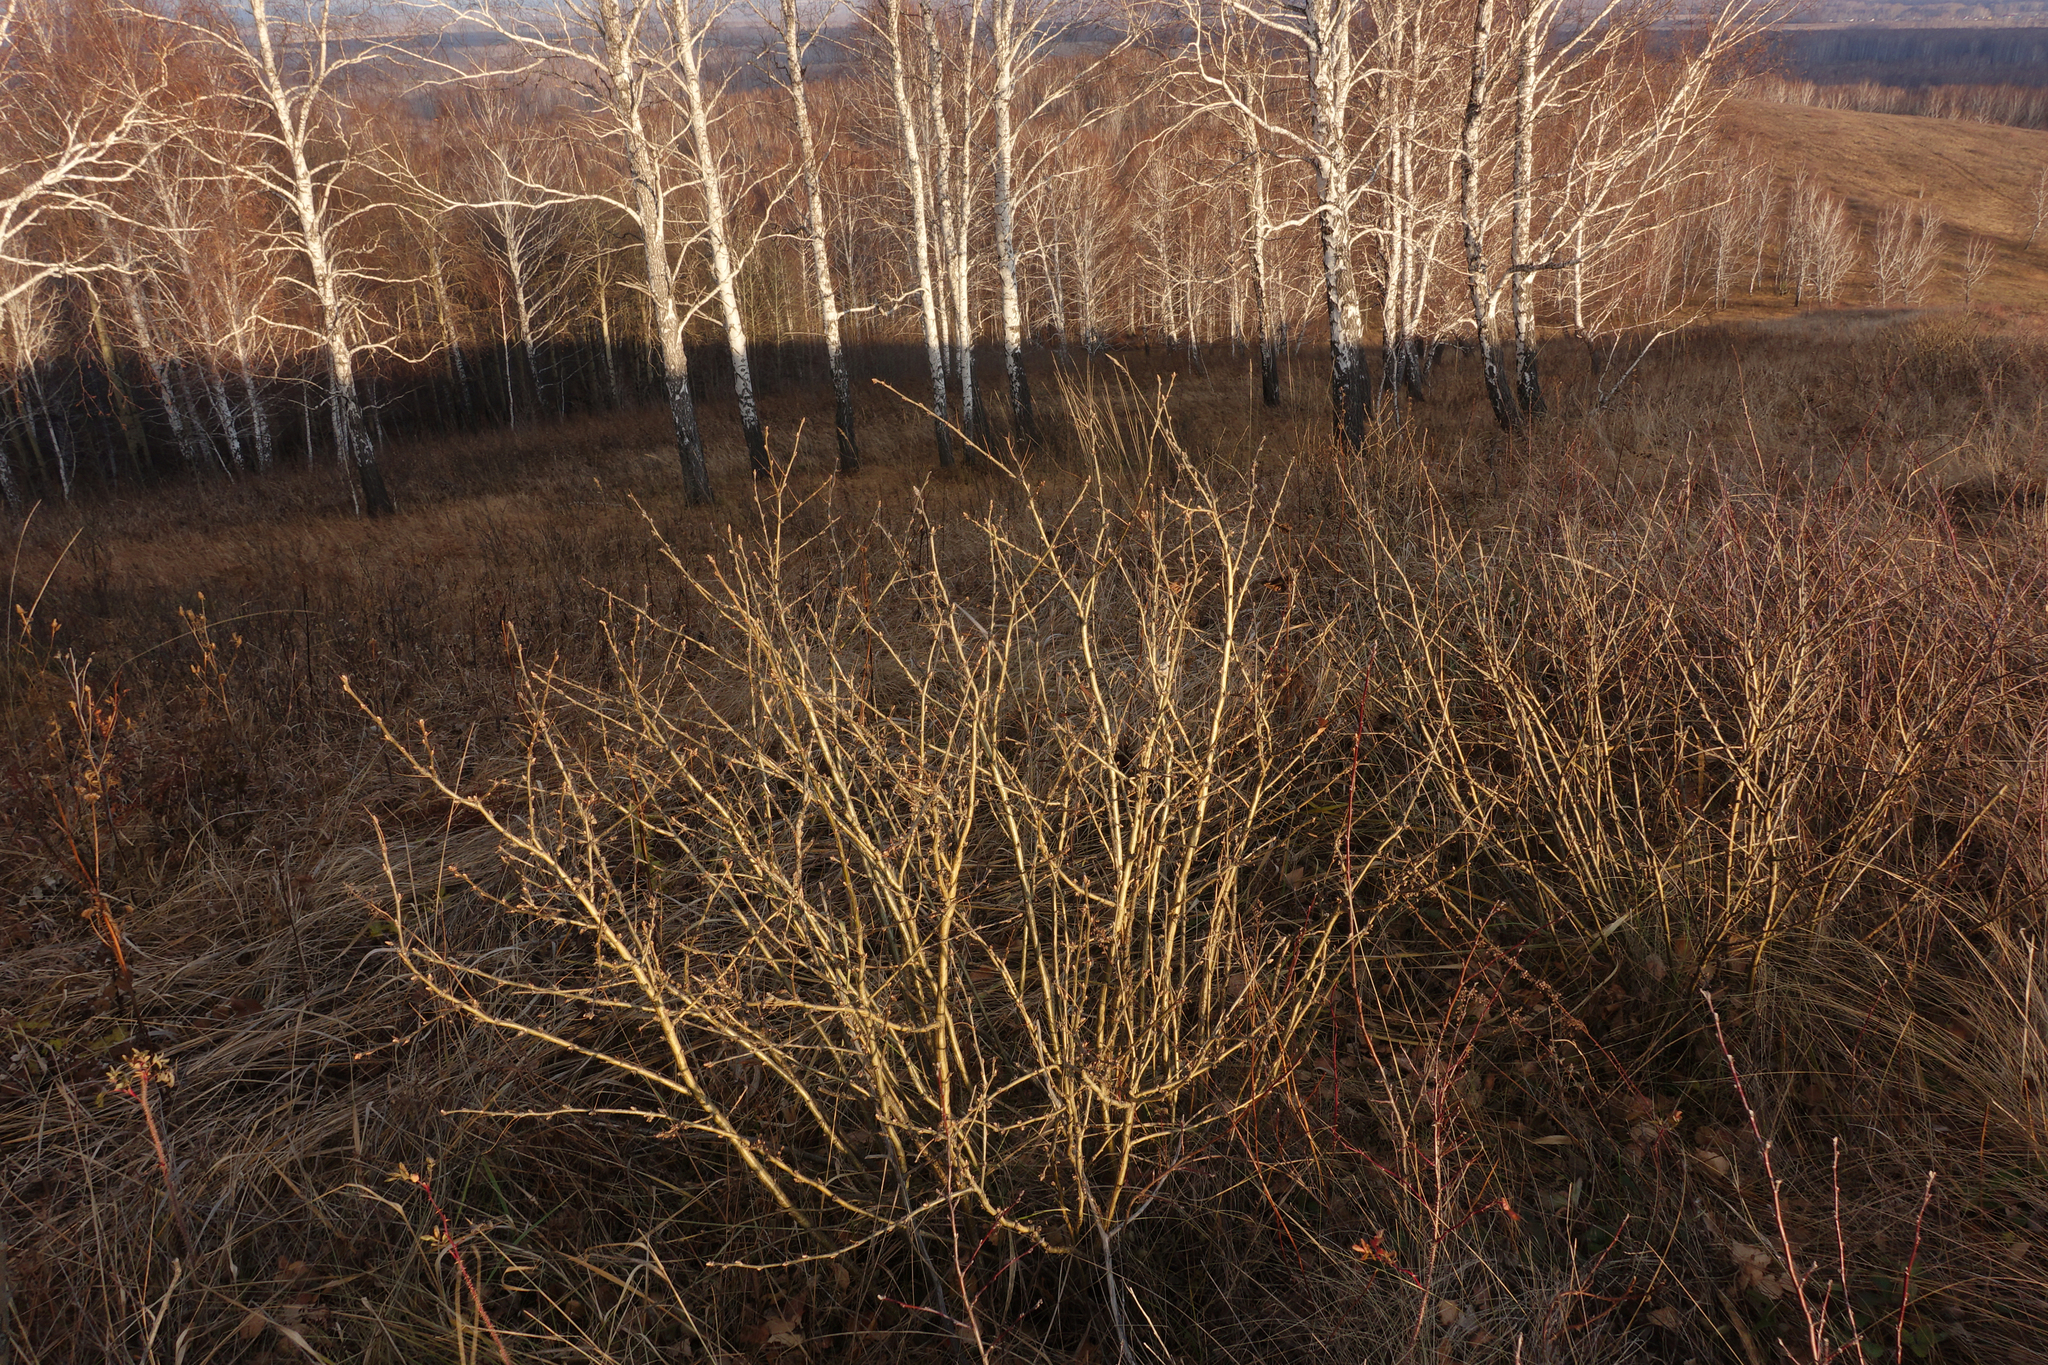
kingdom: Plantae
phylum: Tracheophyta
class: Magnoliopsida
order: Fabales
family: Fabaceae
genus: Caragana
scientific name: Caragana arborescens
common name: Siberian peashrub
